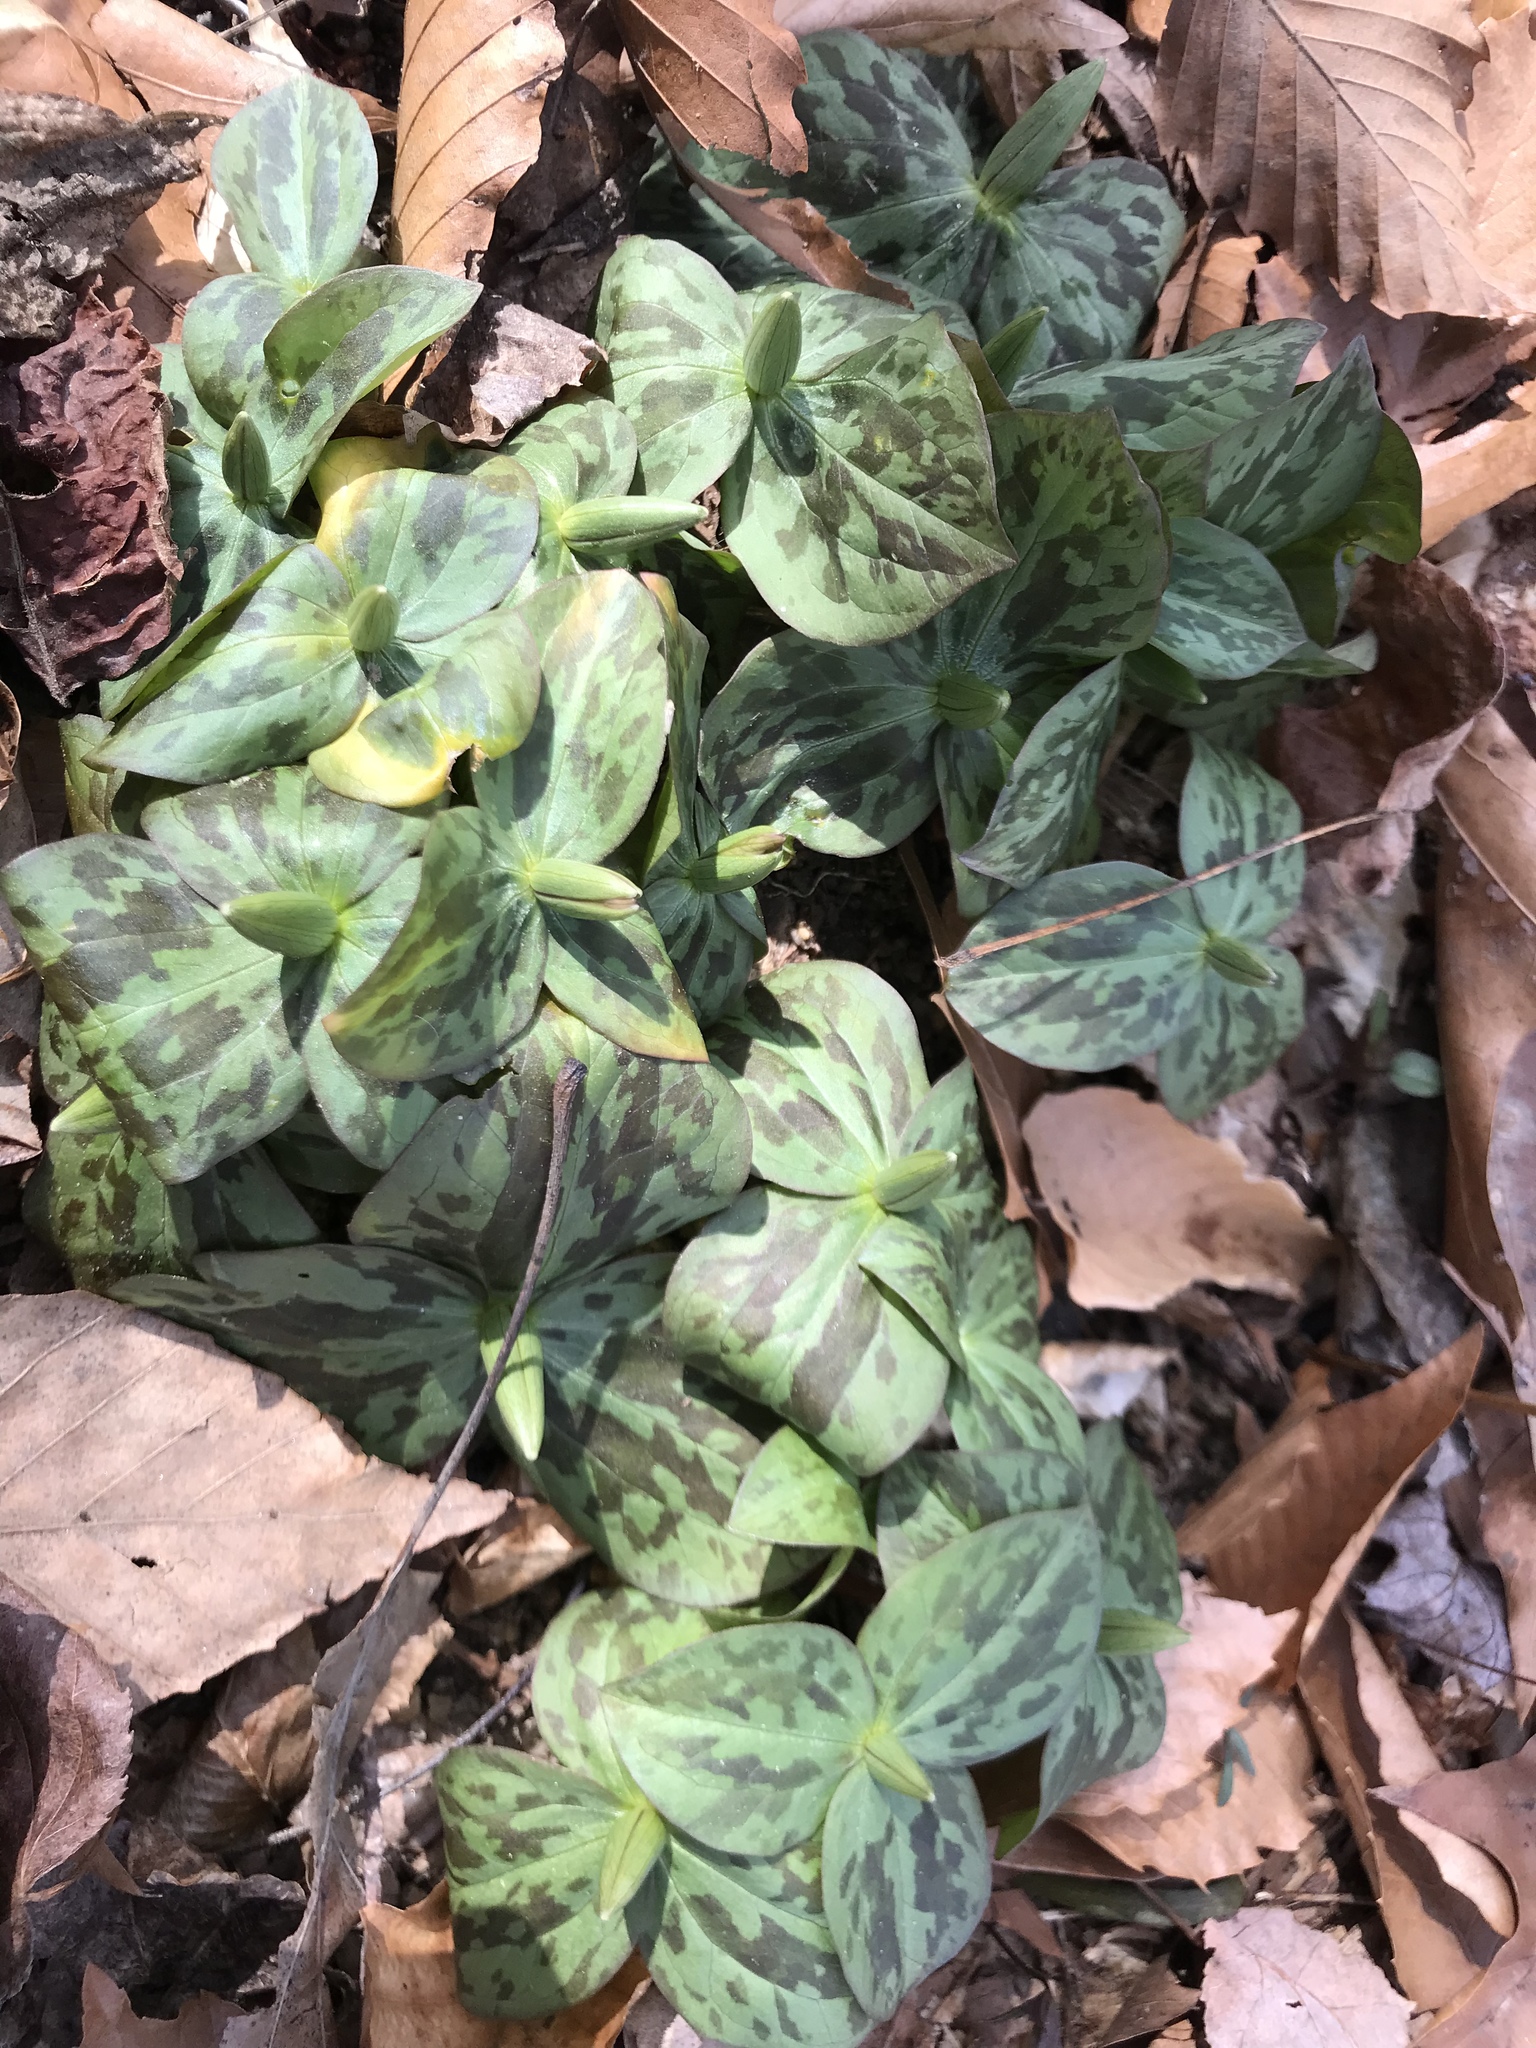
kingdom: Plantae
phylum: Tracheophyta
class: Liliopsida
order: Liliales
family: Melanthiaceae
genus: Trillium
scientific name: Trillium sessile
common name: Sessile trillium
